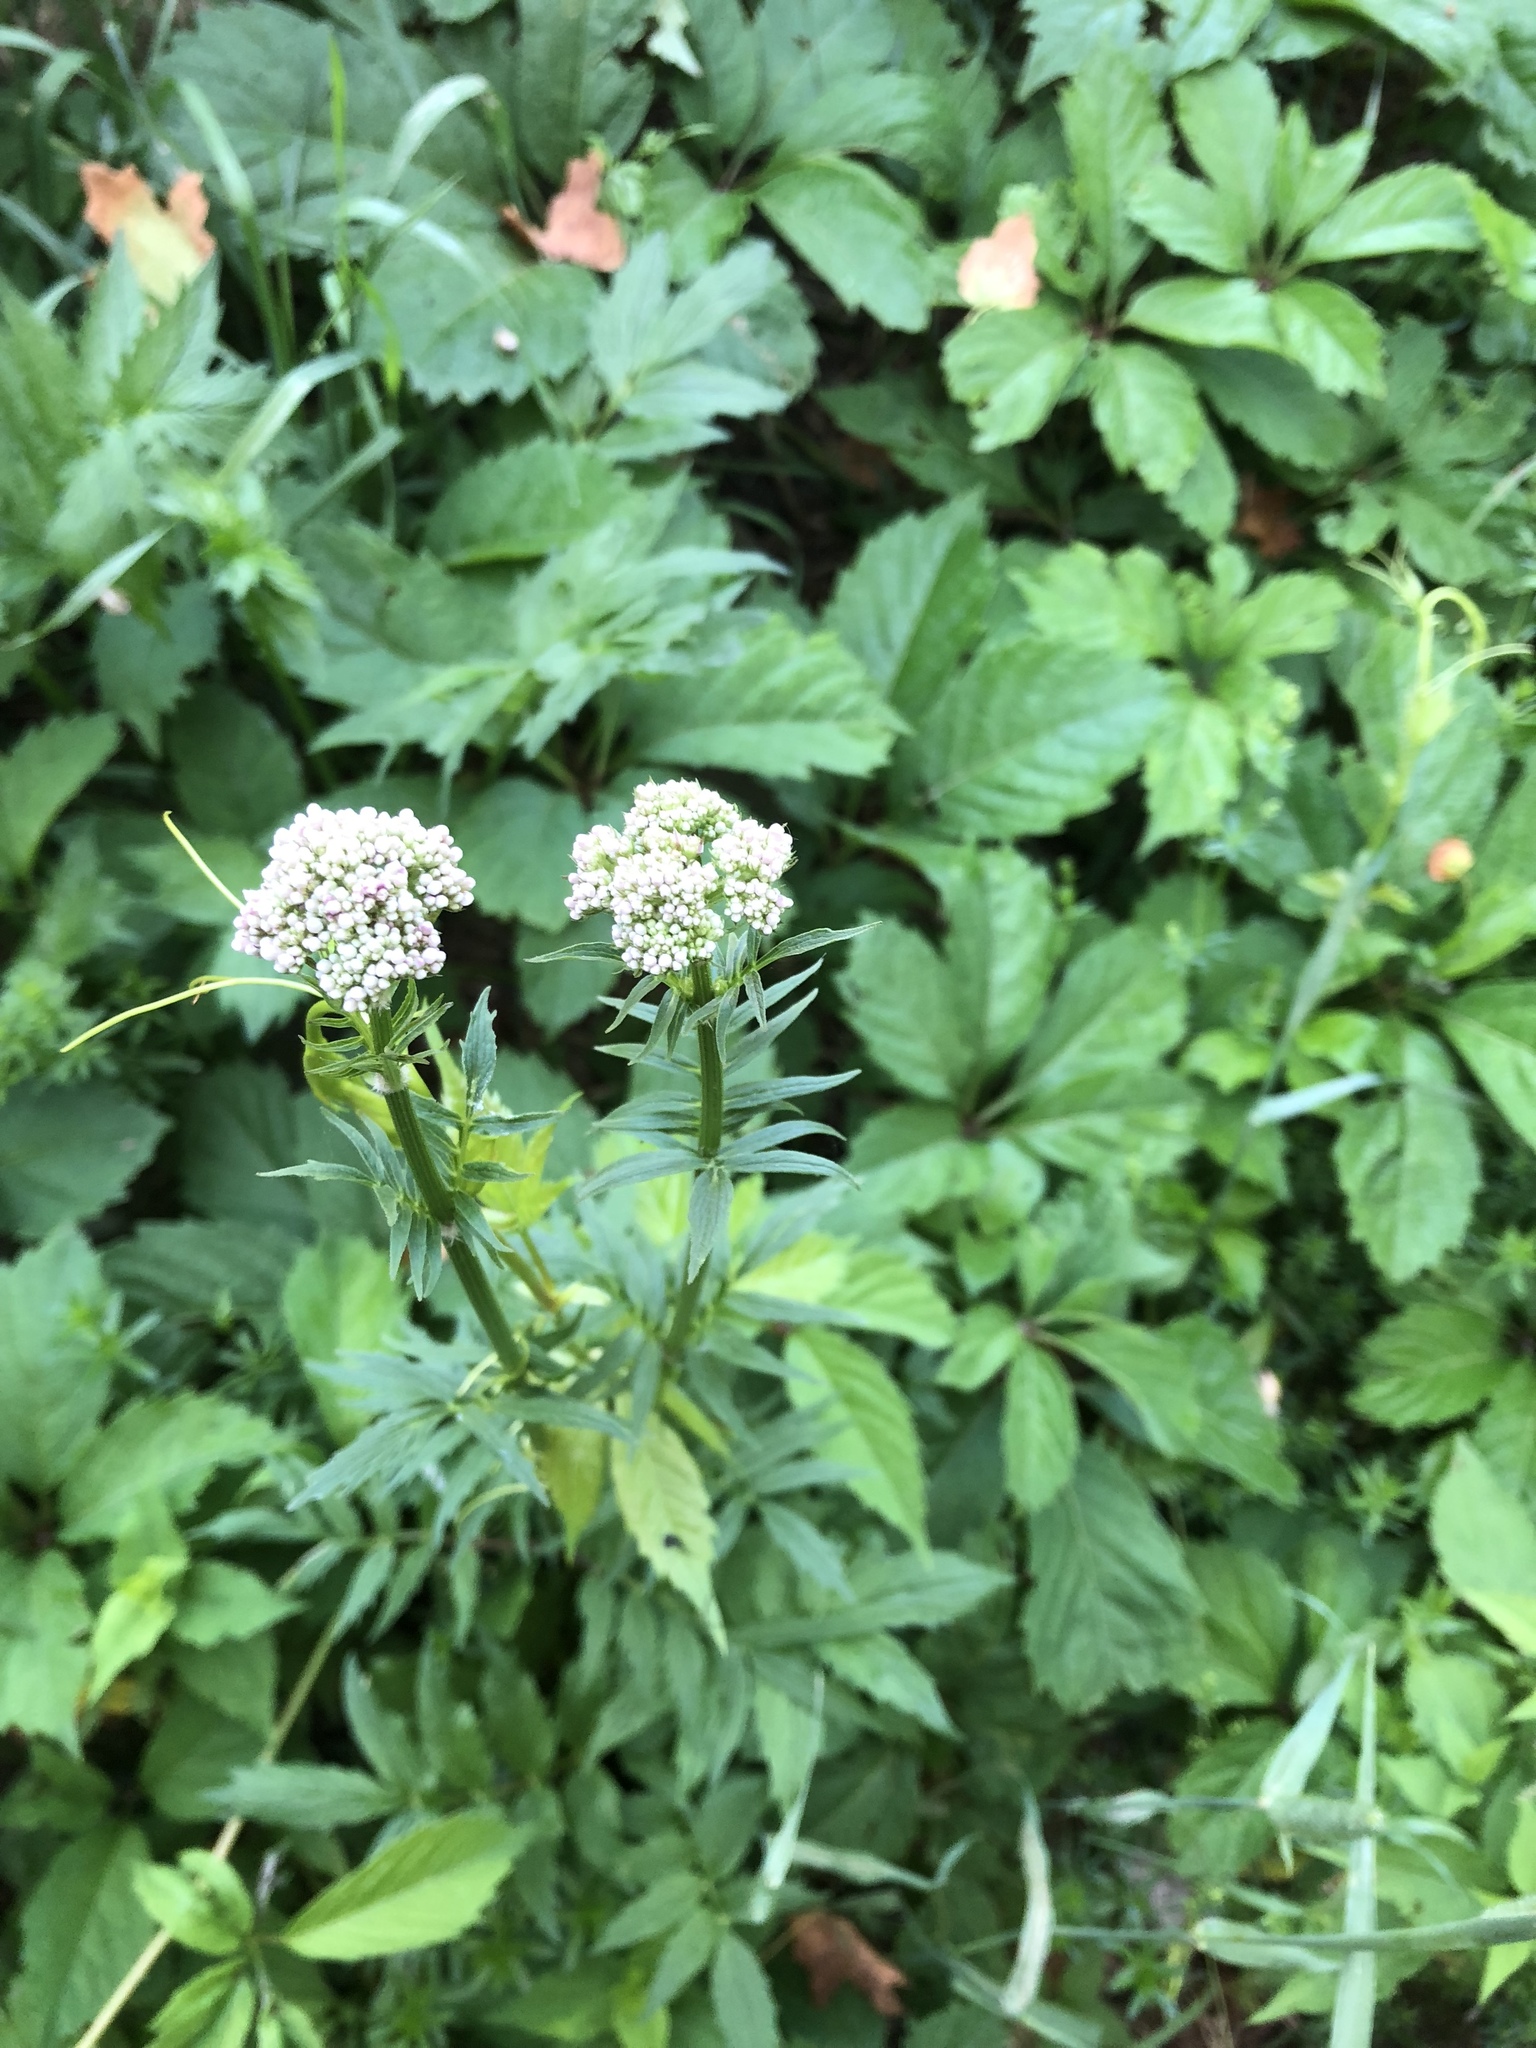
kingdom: Plantae
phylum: Tracheophyta
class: Magnoliopsida
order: Dipsacales
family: Caprifoliaceae
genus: Valeriana
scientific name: Valeriana officinalis
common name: Common valerian
